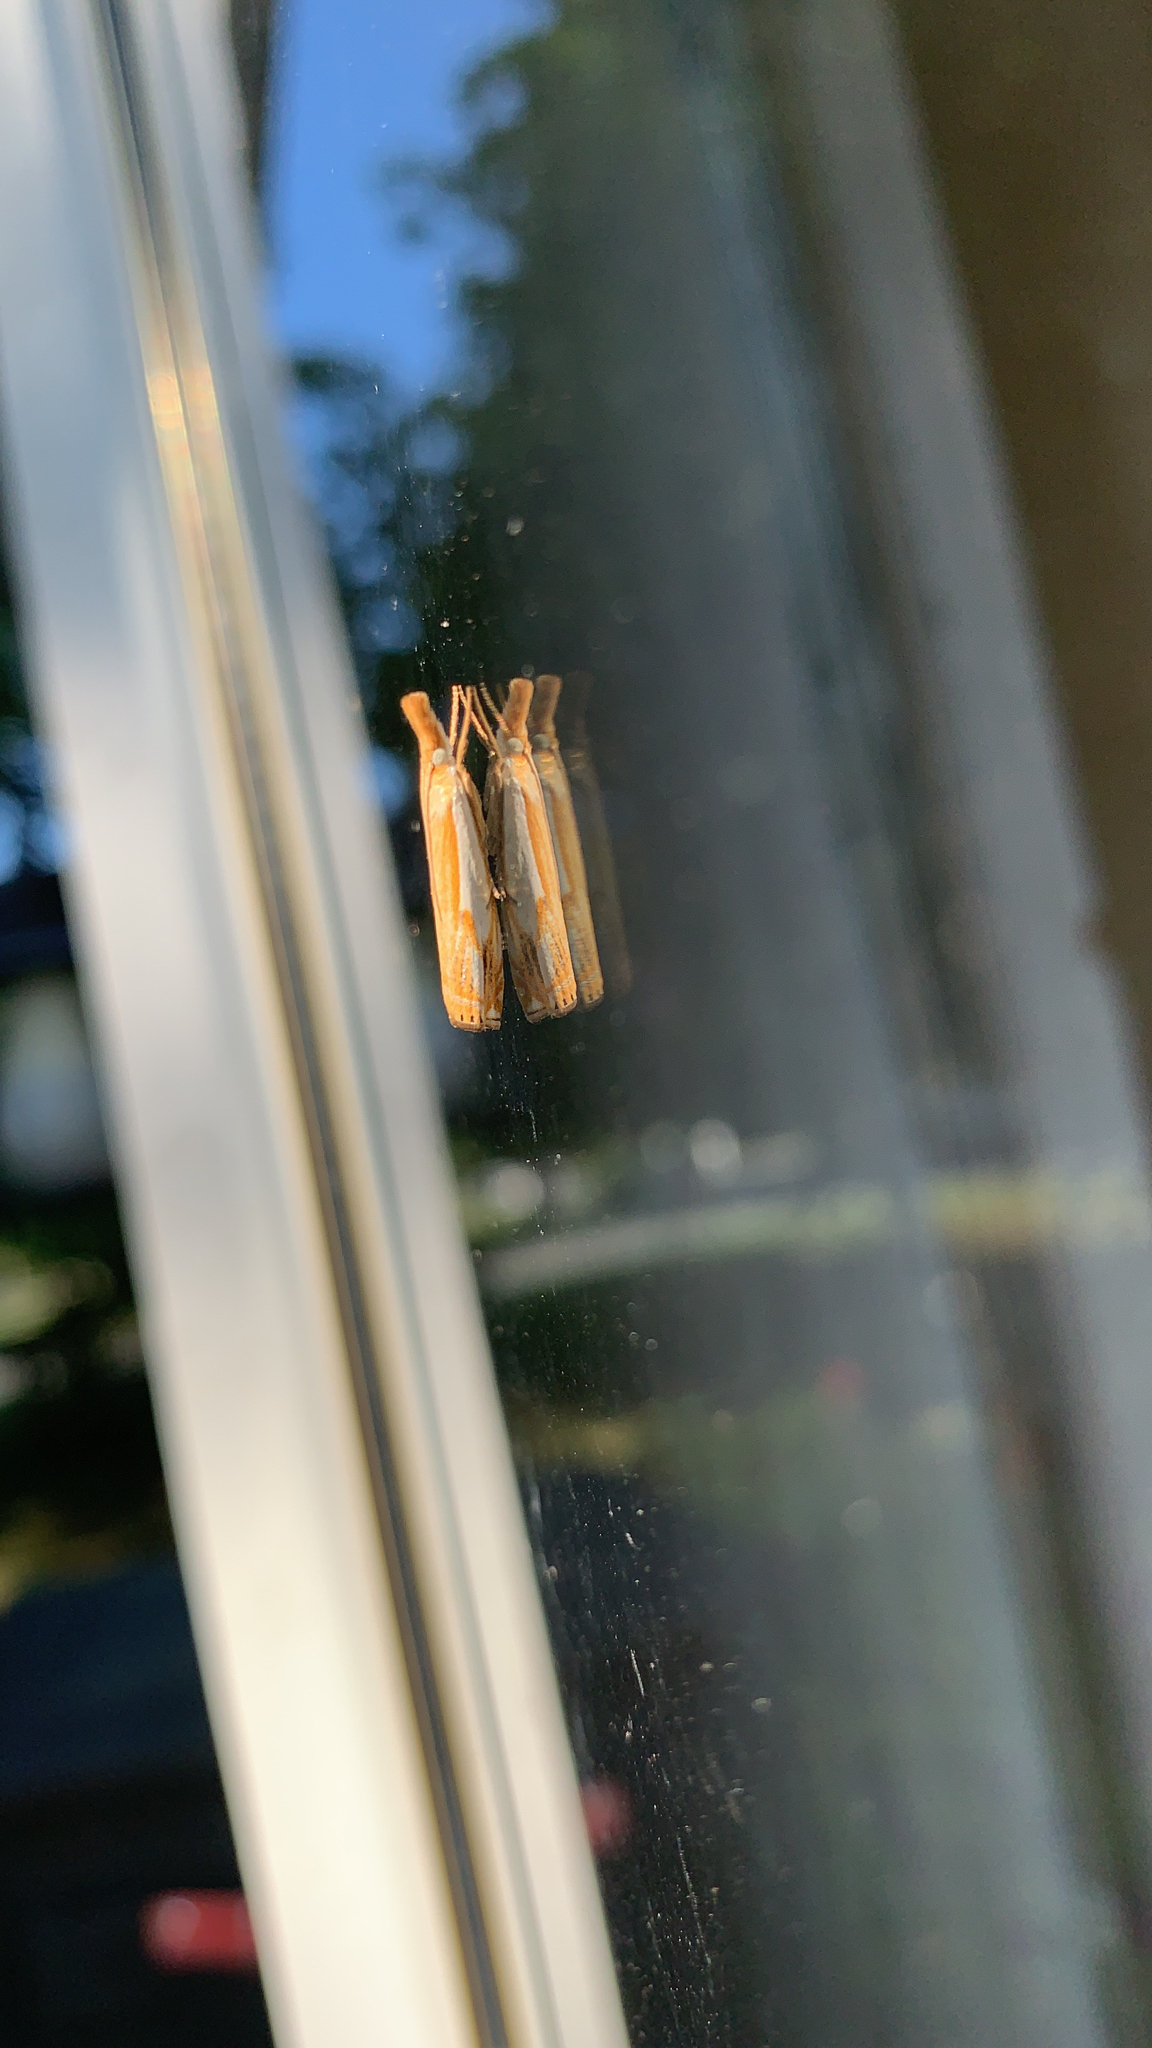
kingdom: Animalia
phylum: Arthropoda
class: Insecta
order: Lepidoptera
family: Crambidae
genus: Crambus
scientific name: Crambus agitatellus
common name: Double-banded grass-veneer
